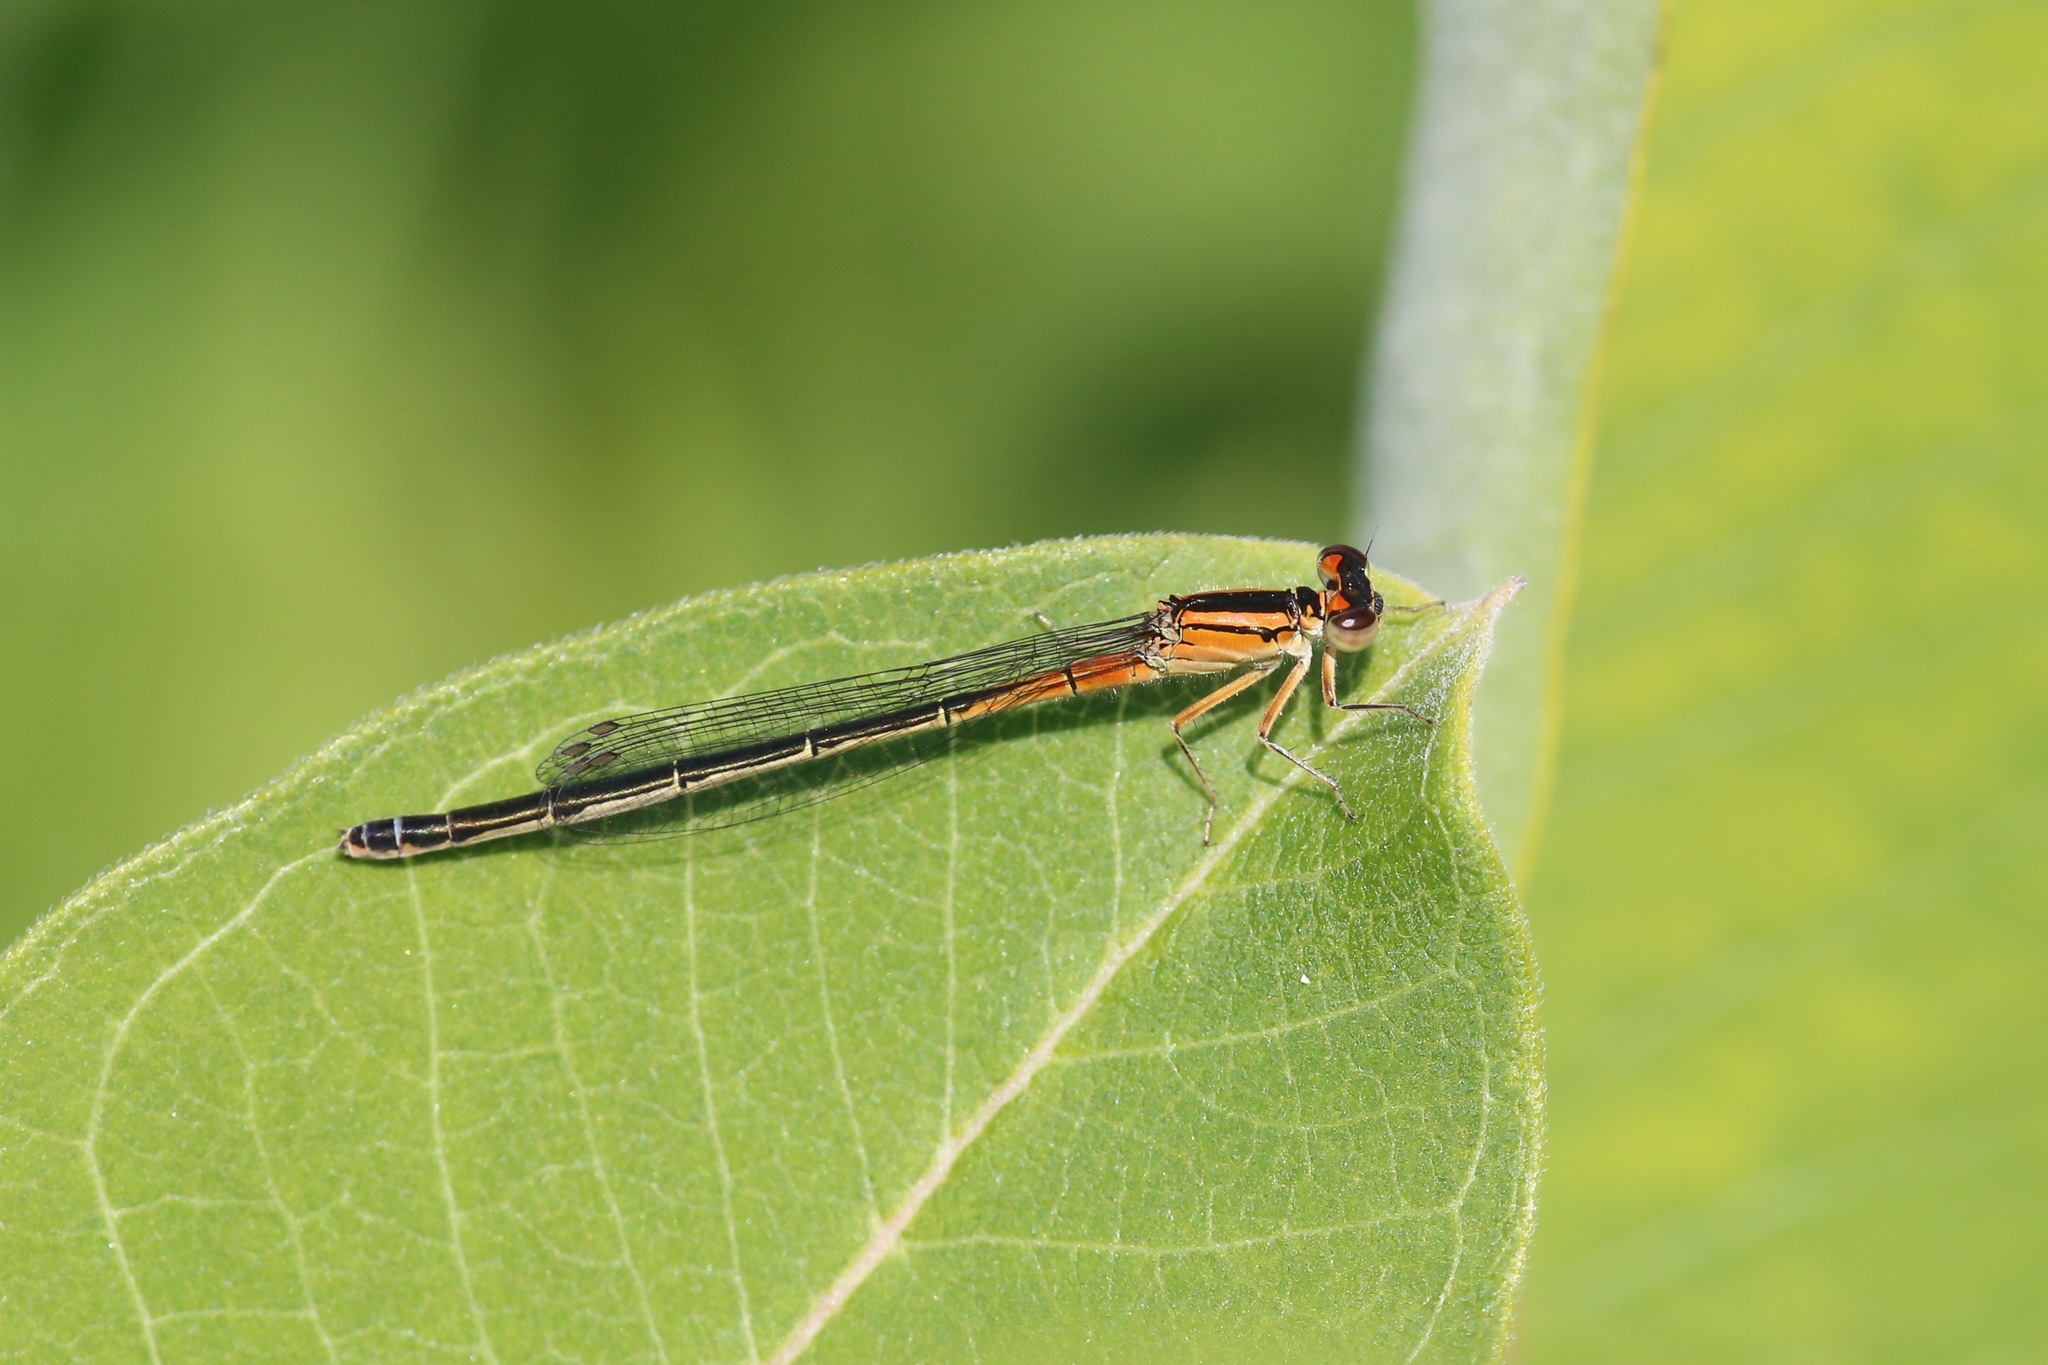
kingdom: Animalia
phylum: Arthropoda
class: Insecta
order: Odonata
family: Coenagrionidae
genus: Ischnura
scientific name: Ischnura verticalis
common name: Eastern forktail
